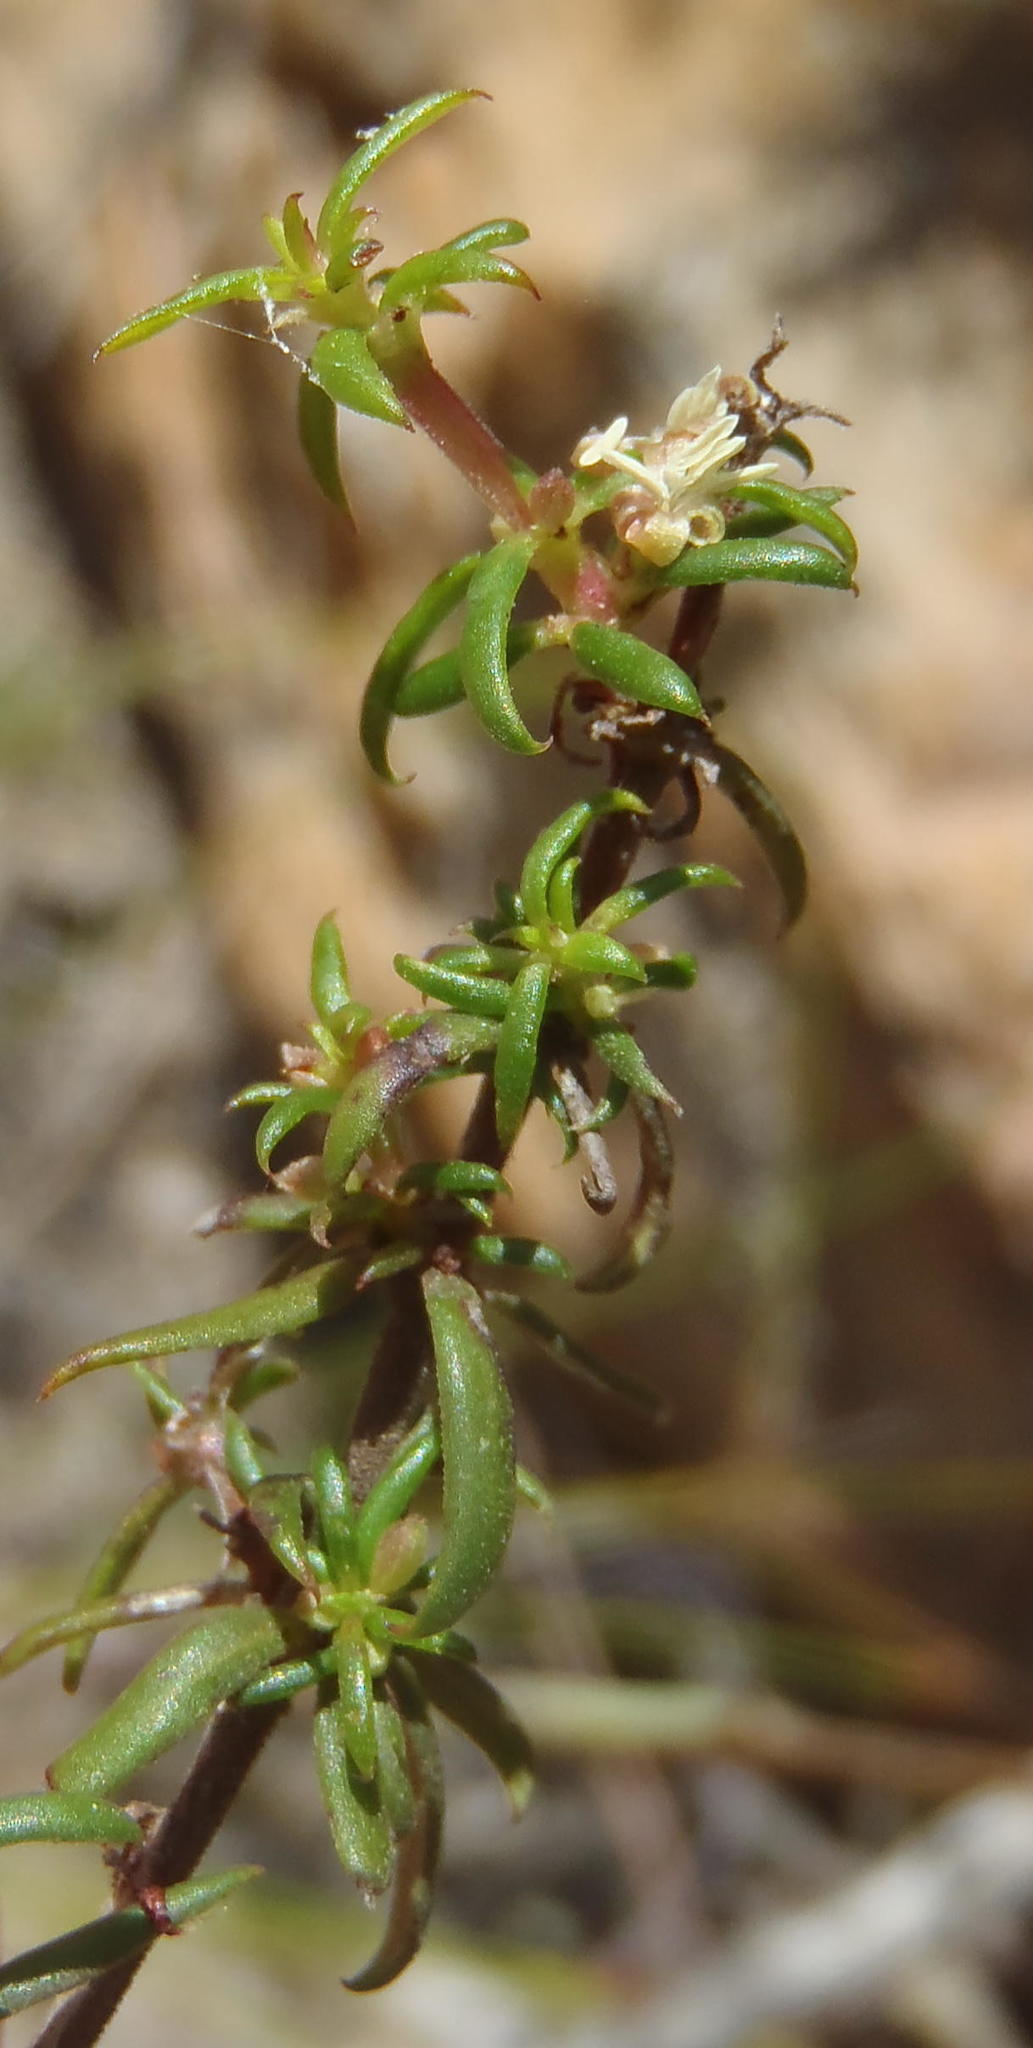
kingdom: Plantae
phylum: Tracheophyta
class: Magnoliopsida
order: Gentianales
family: Rubiaceae
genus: Anthospermum
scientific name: Anthospermum spathulatum
